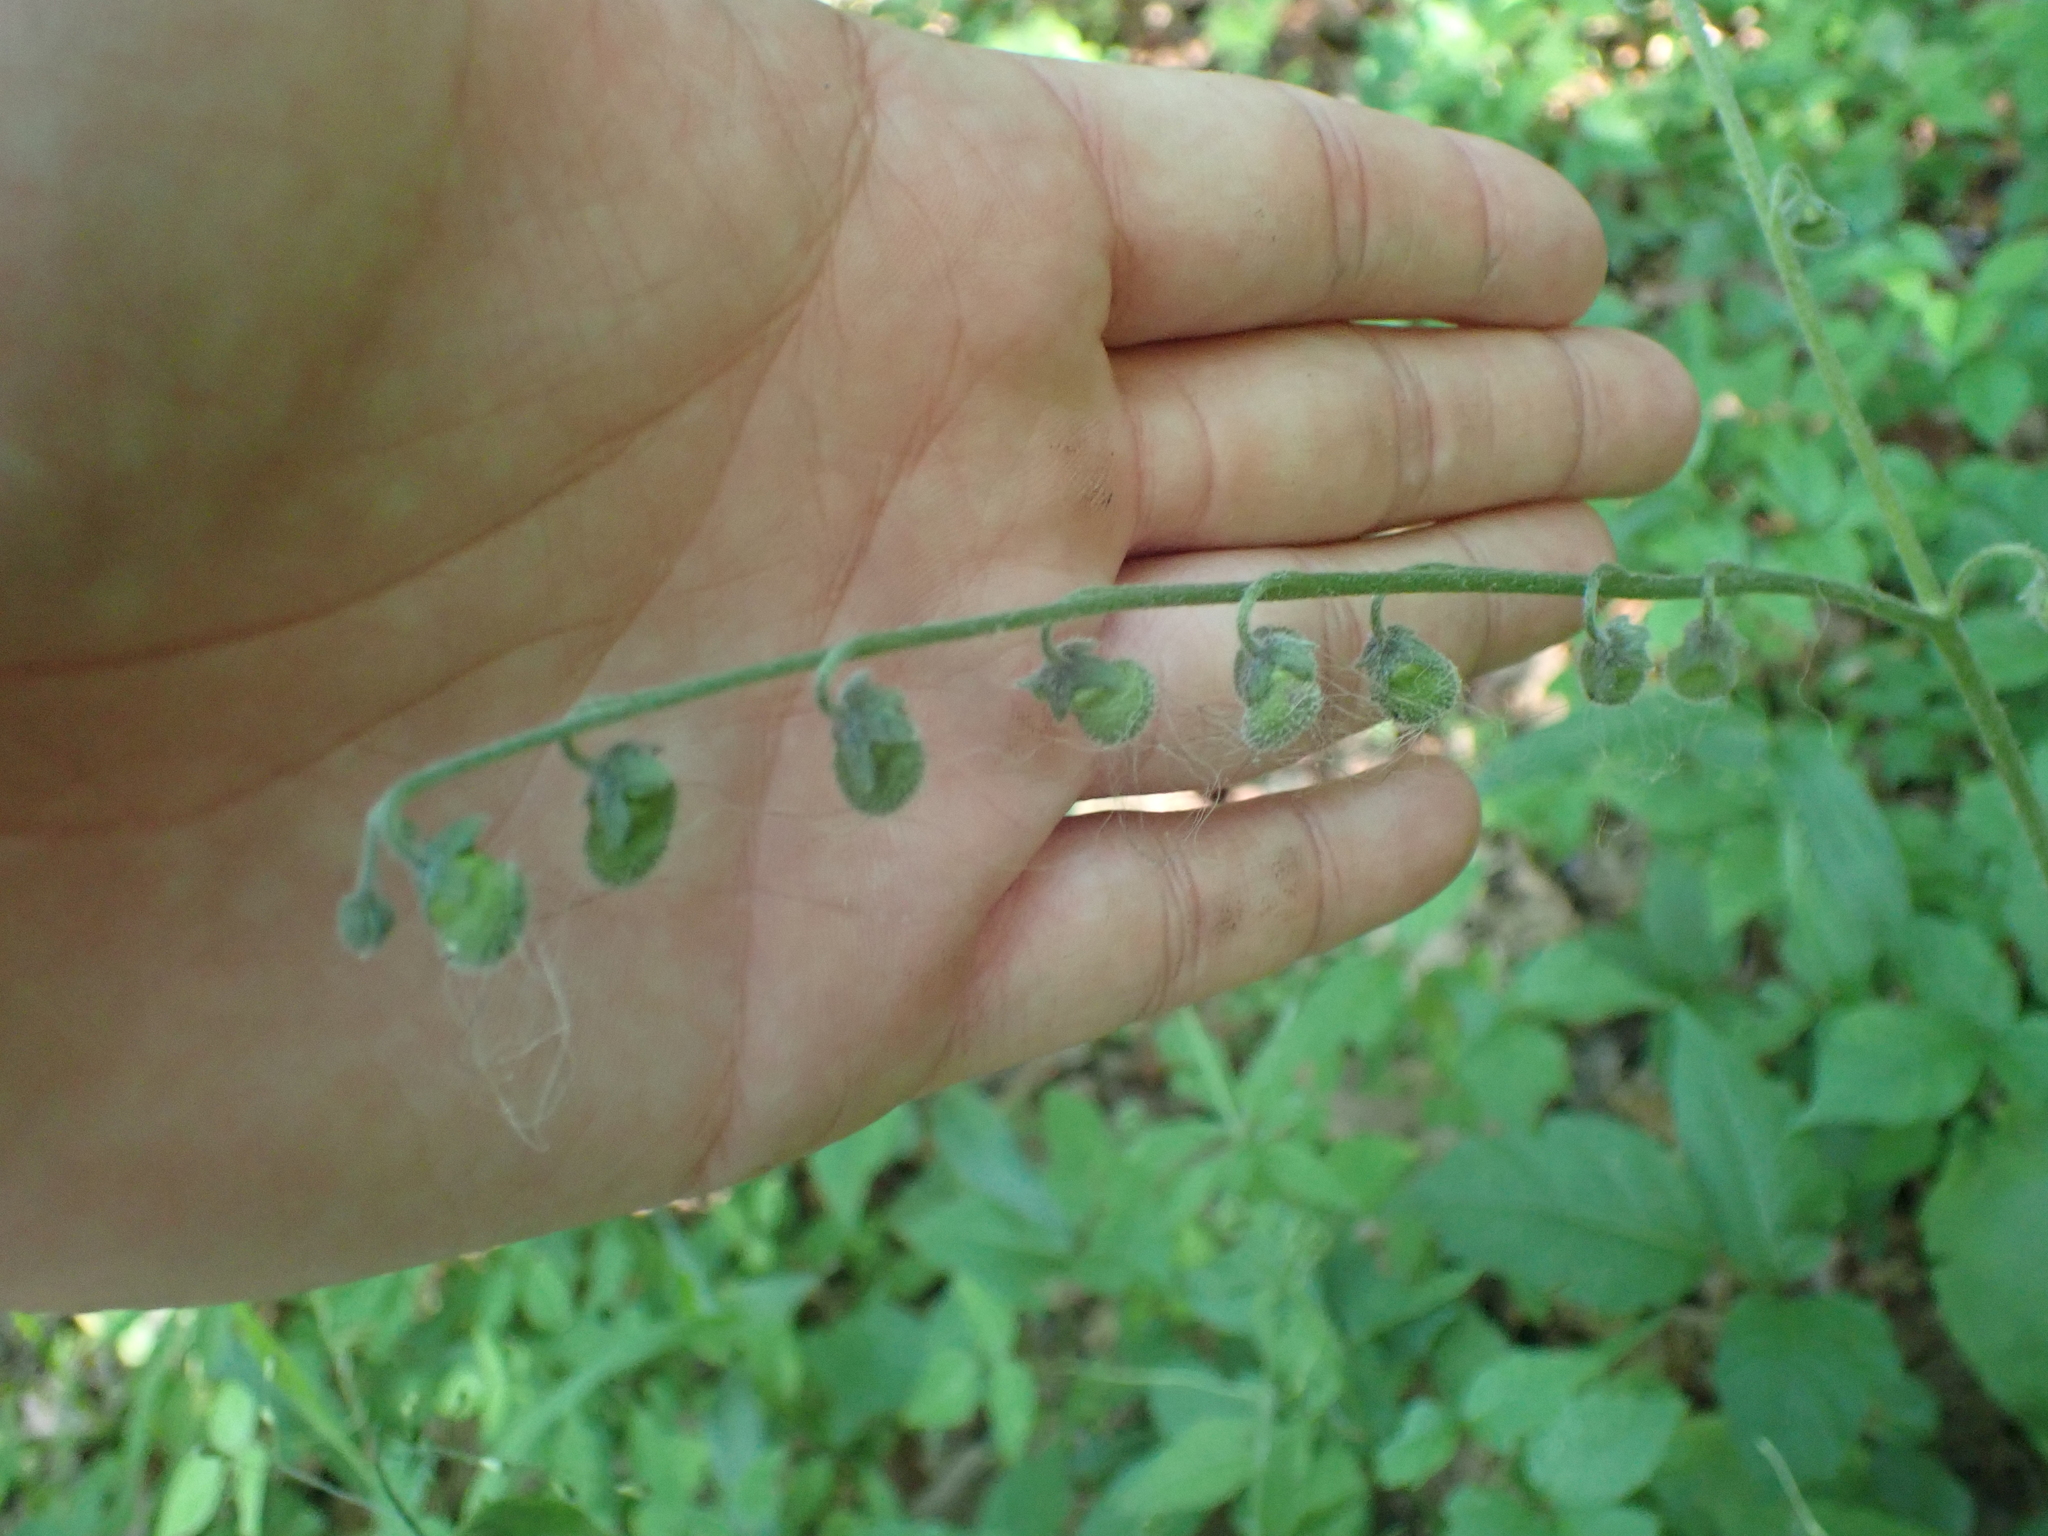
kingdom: Plantae
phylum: Tracheophyta
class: Magnoliopsida
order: Boraginales
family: Boraginaceae
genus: Andersonglossum
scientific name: Andersonglossum virginianum
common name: Wild comfrey
